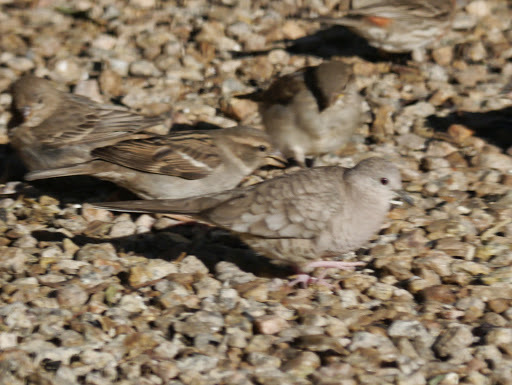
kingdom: Animalia
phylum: Chordata
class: Aves
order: Columbiformes
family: Columbidae
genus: Columbina
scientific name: Columbina inca
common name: Inca dove
